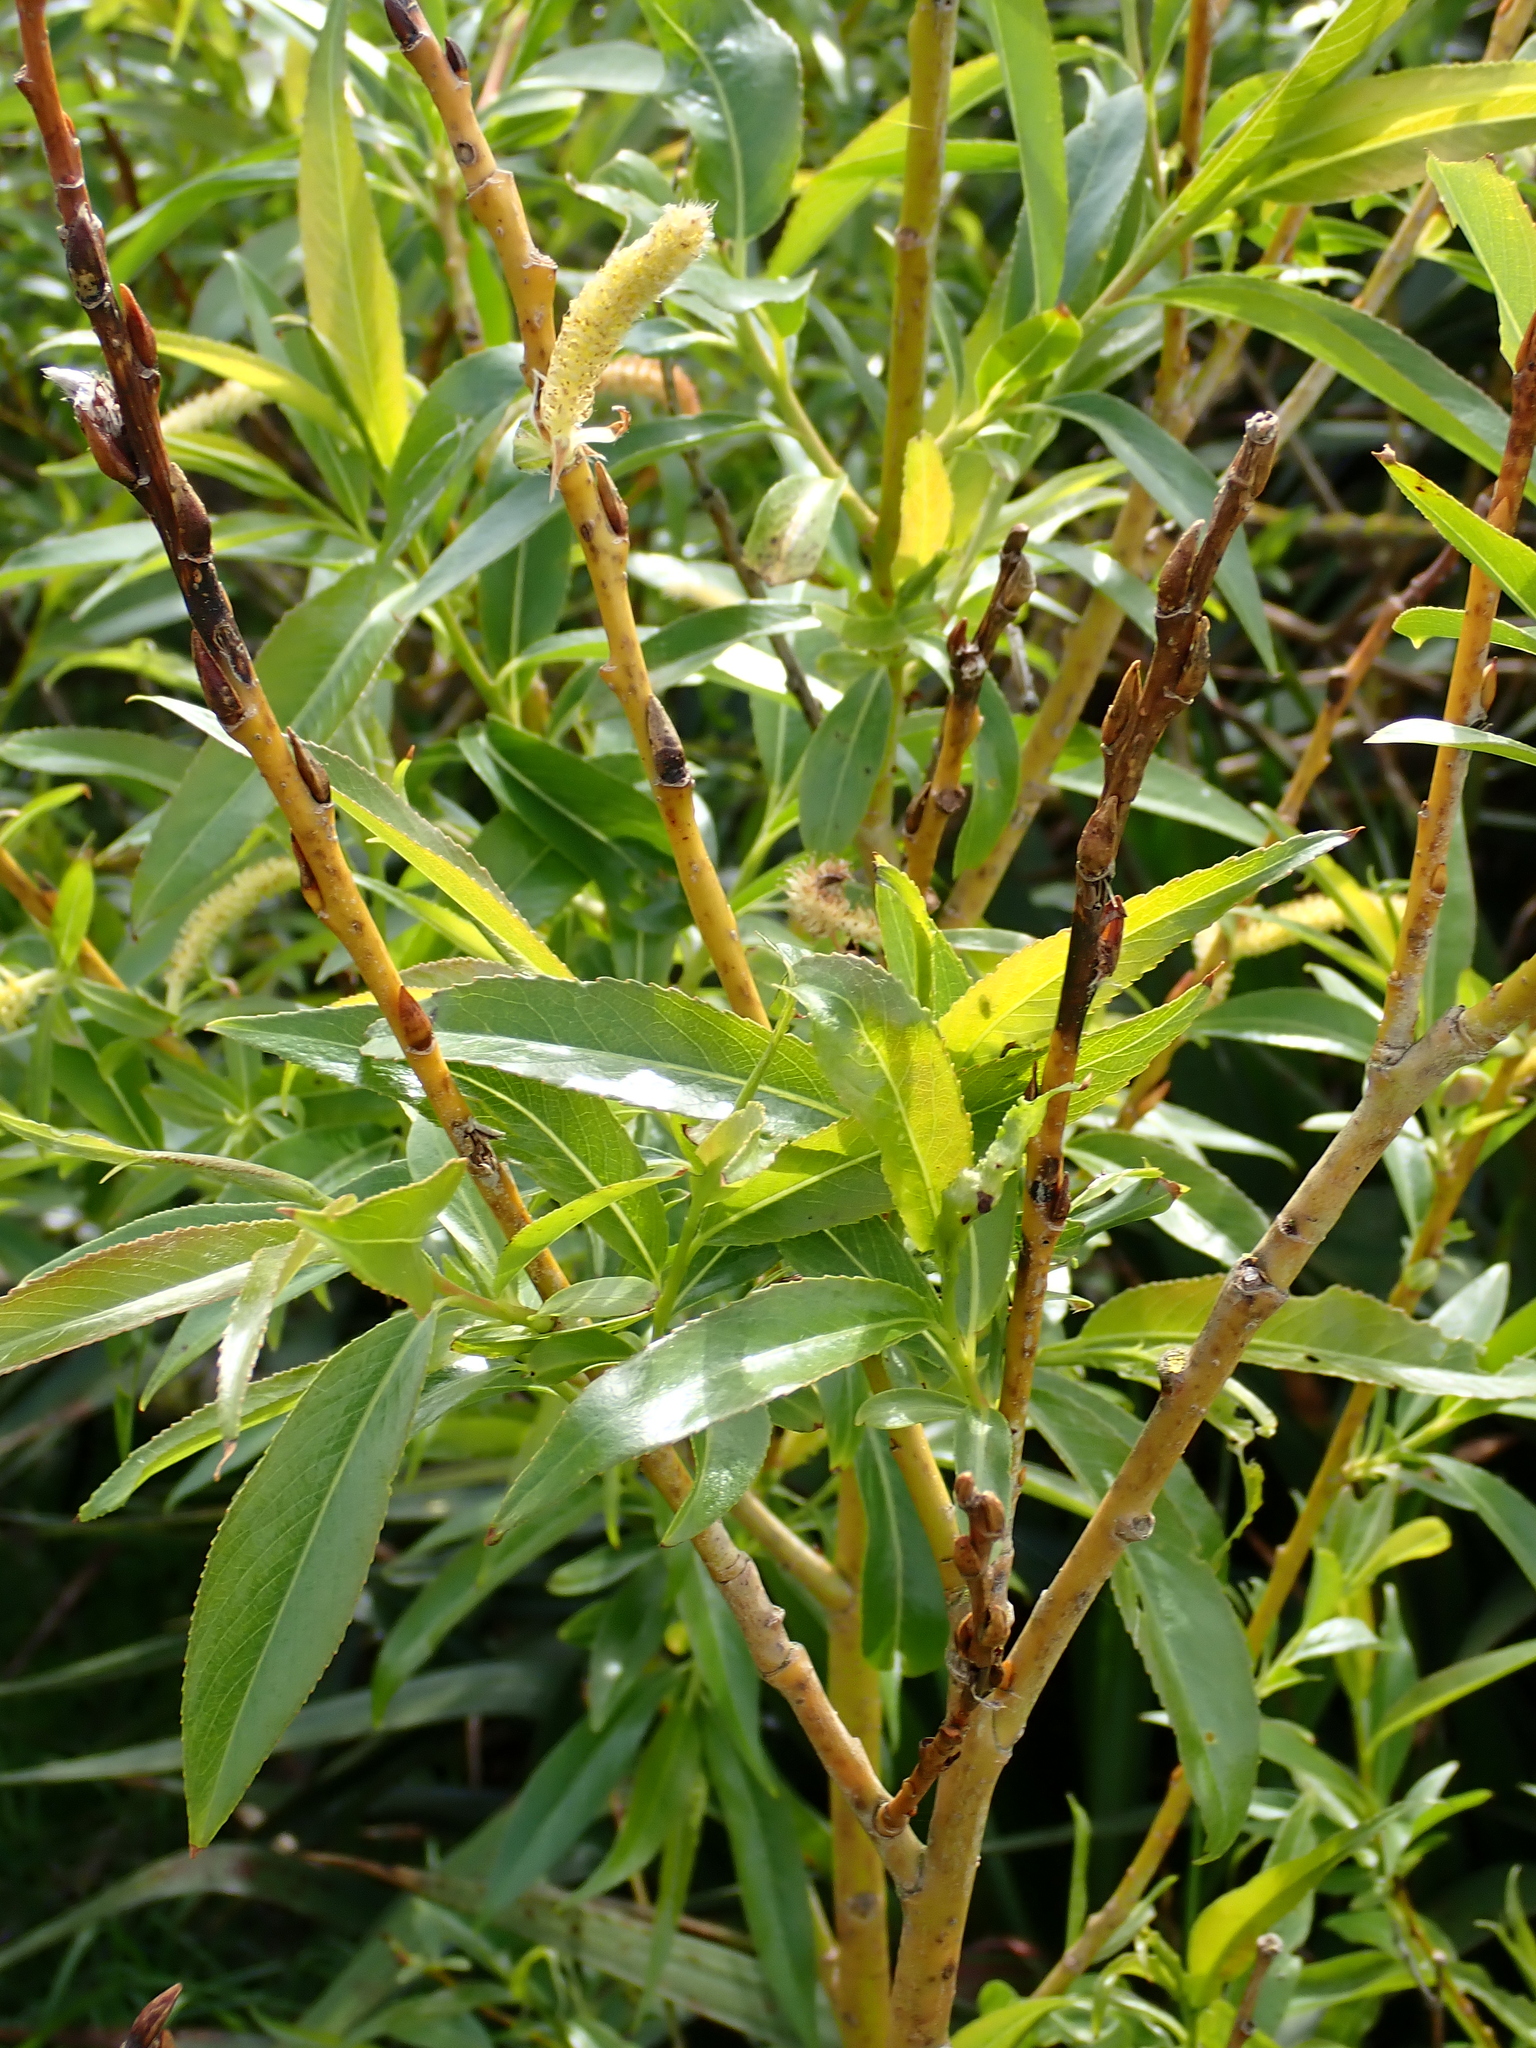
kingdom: Plantae
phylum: Tracheophyta
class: Magnoliopsida
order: Malpighiales
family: Salicaceae
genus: Salix
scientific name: Salix fragilis
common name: Crack willow
